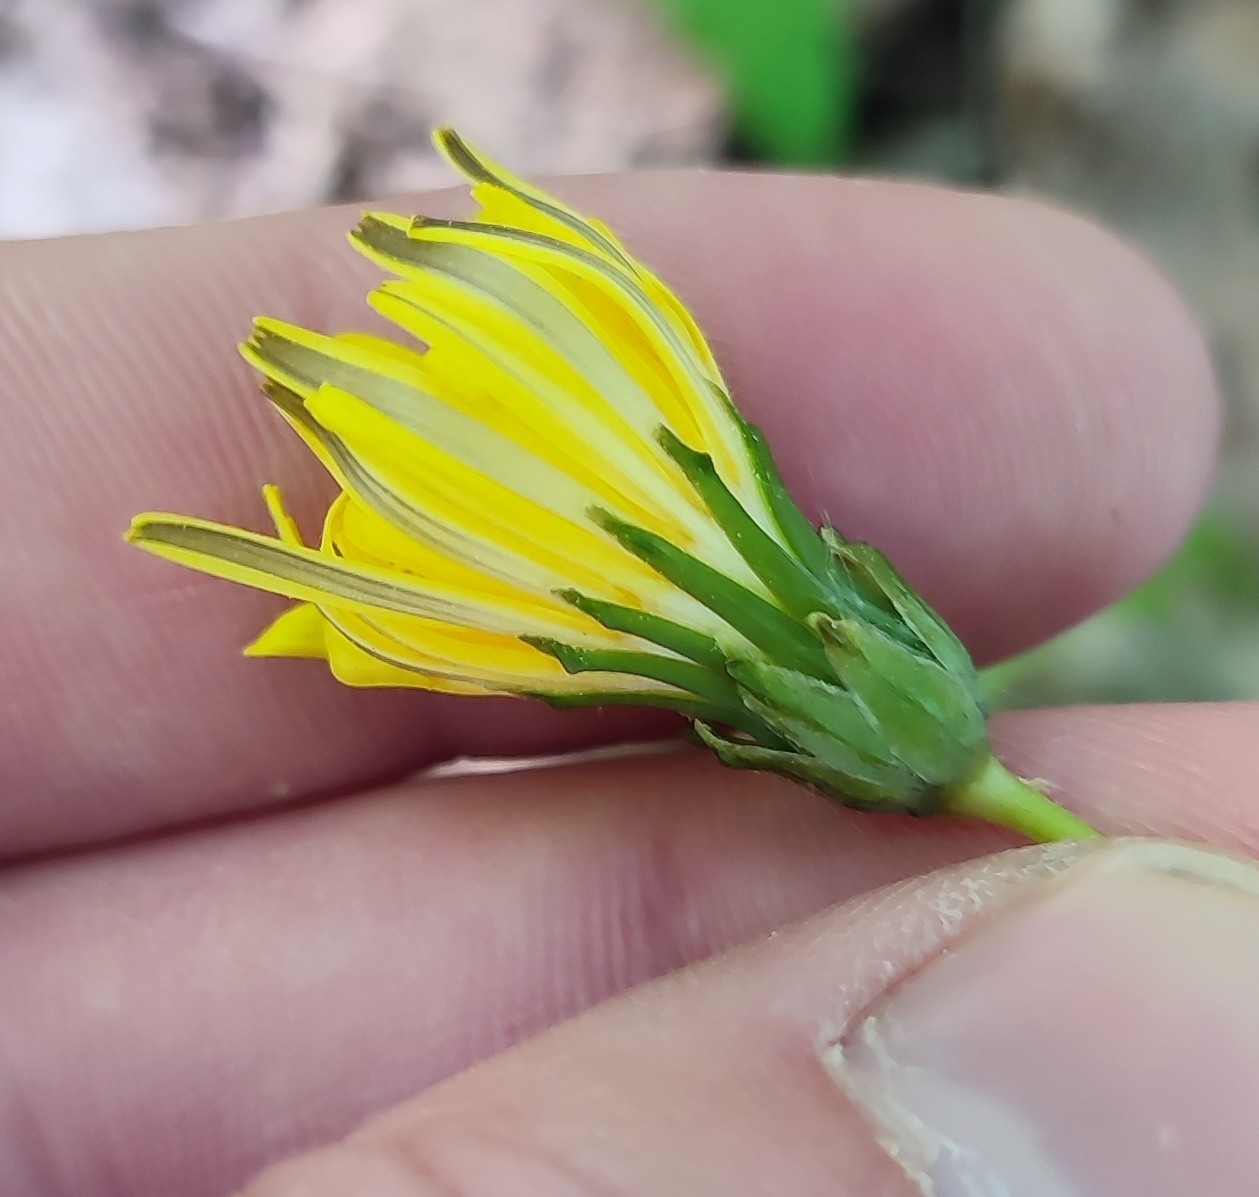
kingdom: Plantae
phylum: Tracheophyta
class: Magnoliopsida
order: Asterales
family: Asteraceae
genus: Taraxacum
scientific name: Taraxacum scariosum
